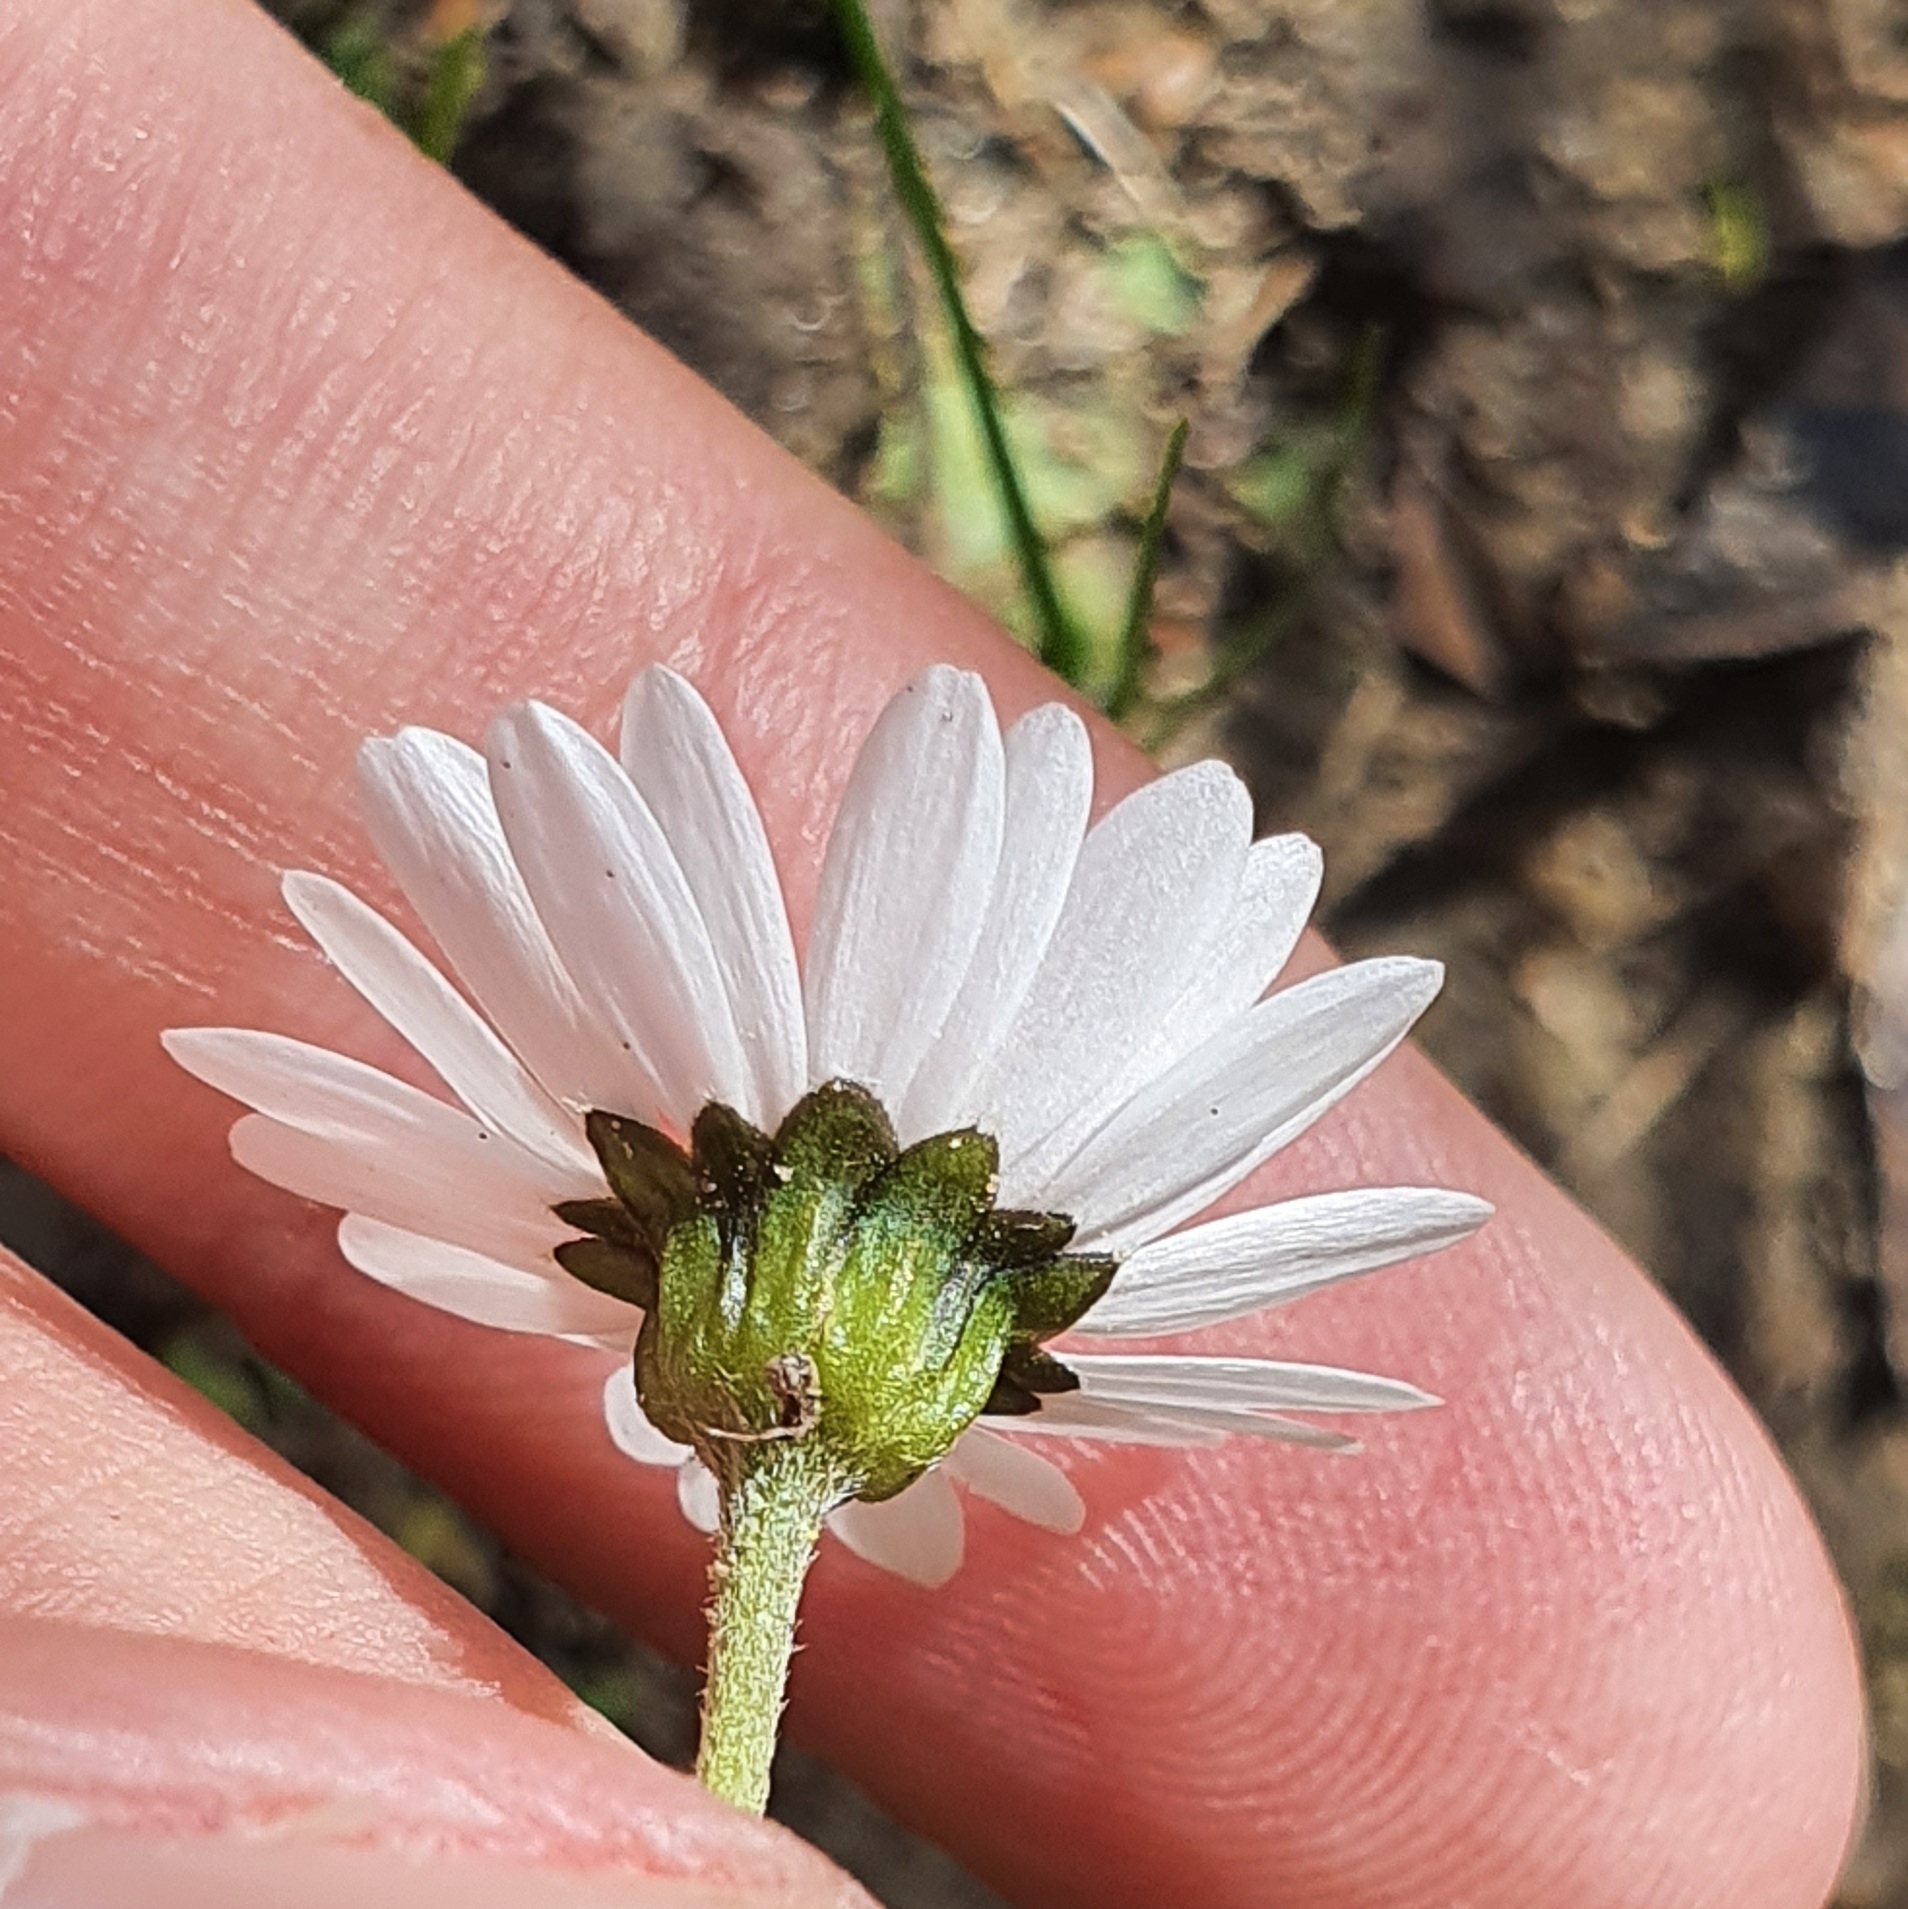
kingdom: Plantae
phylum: Tracheophyta
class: Magnoliopsida
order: Asterales
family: Asteraceae
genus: Bellis
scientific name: Bellis annua
